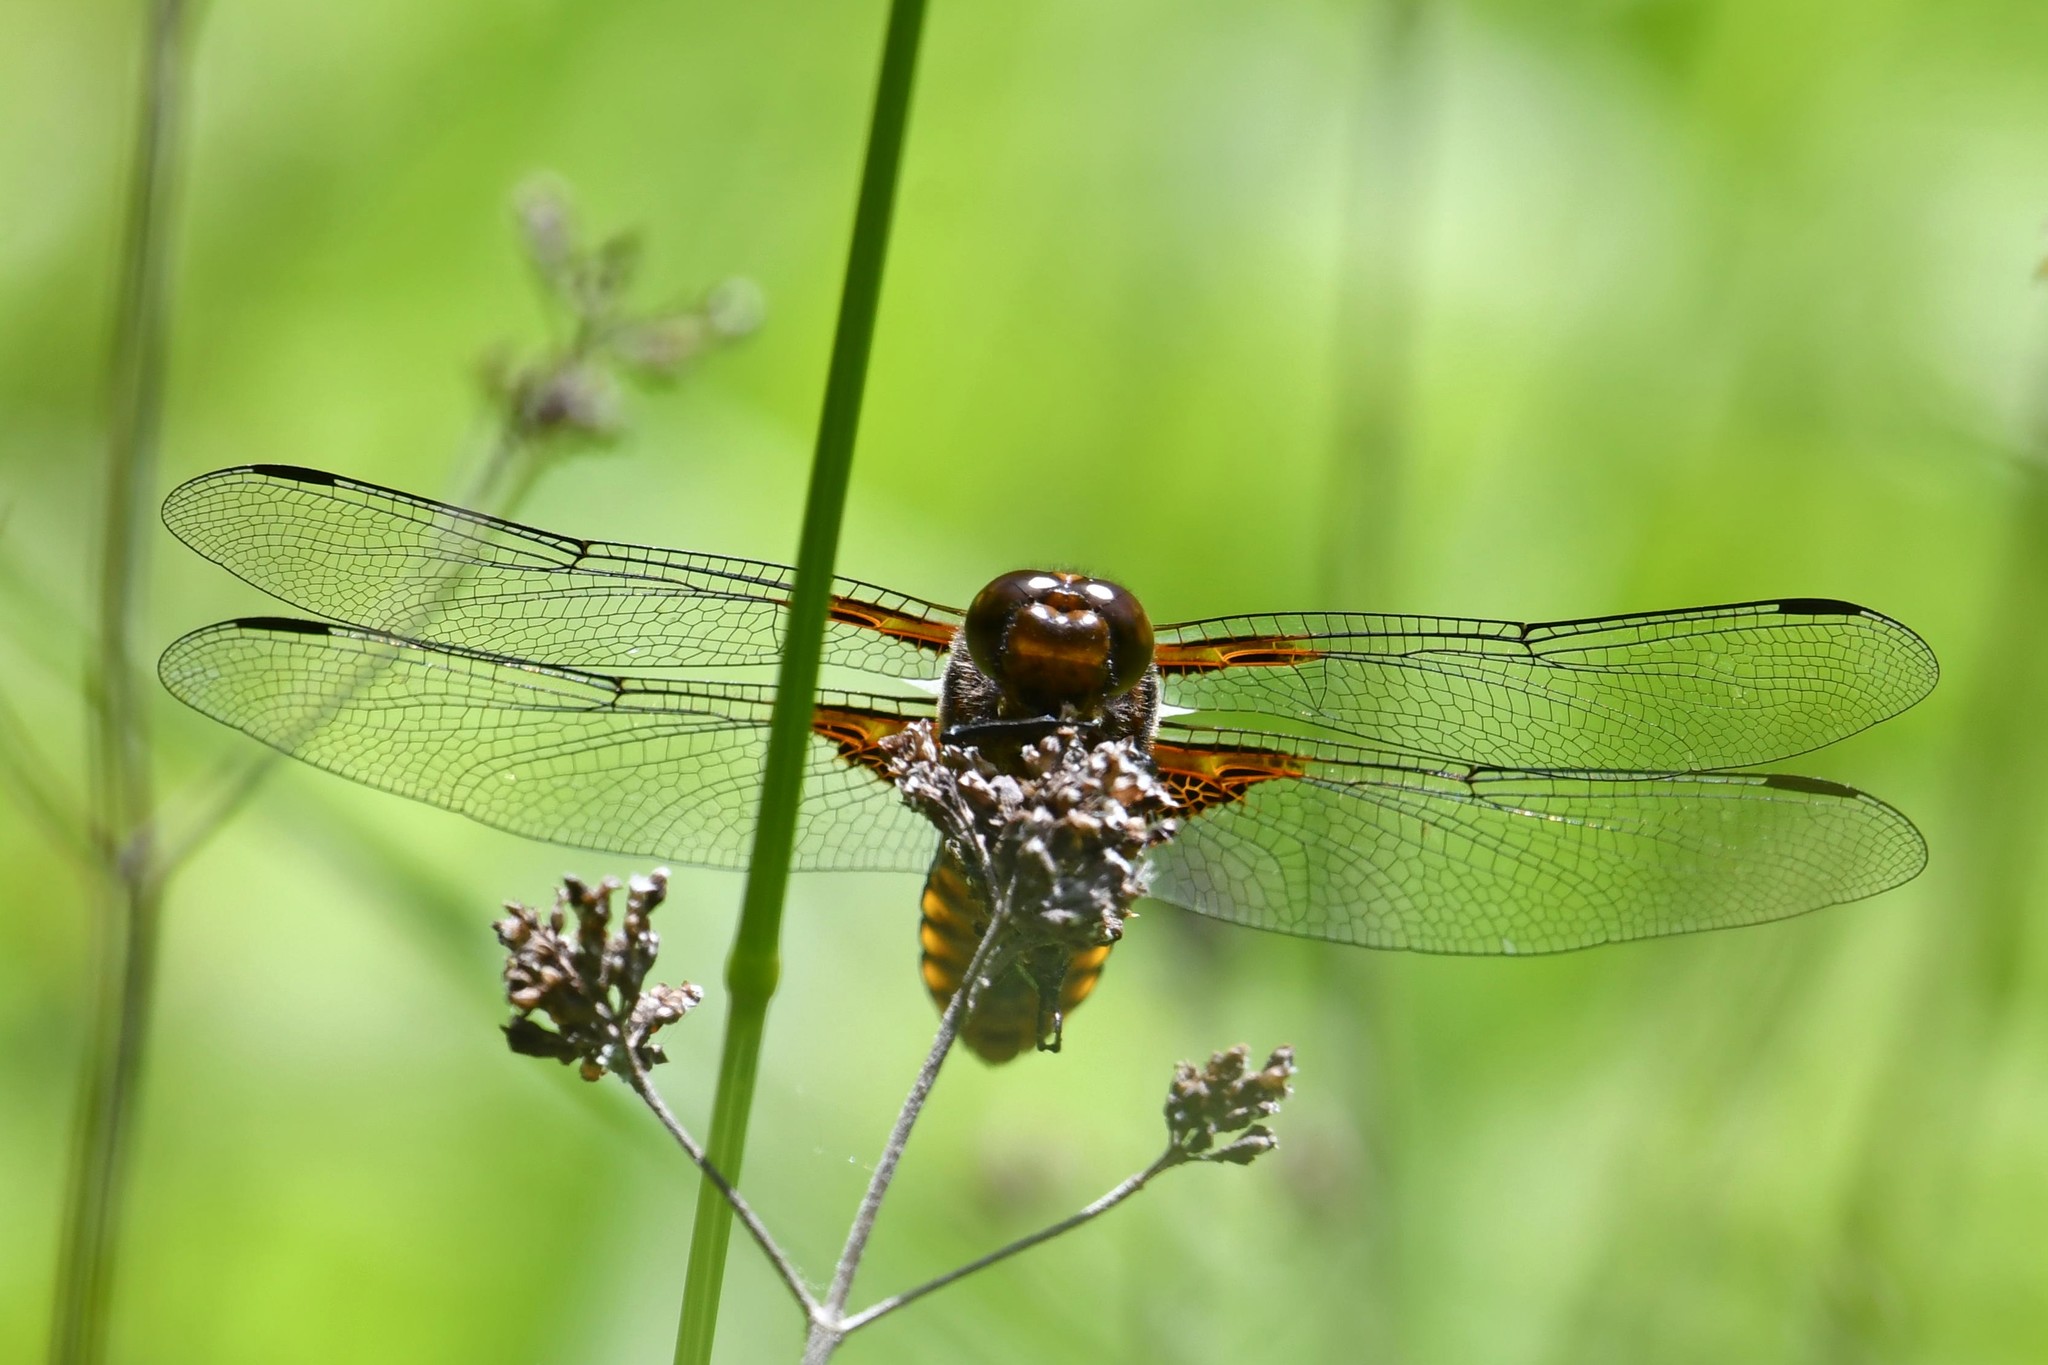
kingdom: Animalia
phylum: Arthropoda
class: Insecta
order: Odonata
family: Libellulidae
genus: Libellula
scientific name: Libellula depressa
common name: Broad-bodied chaser
